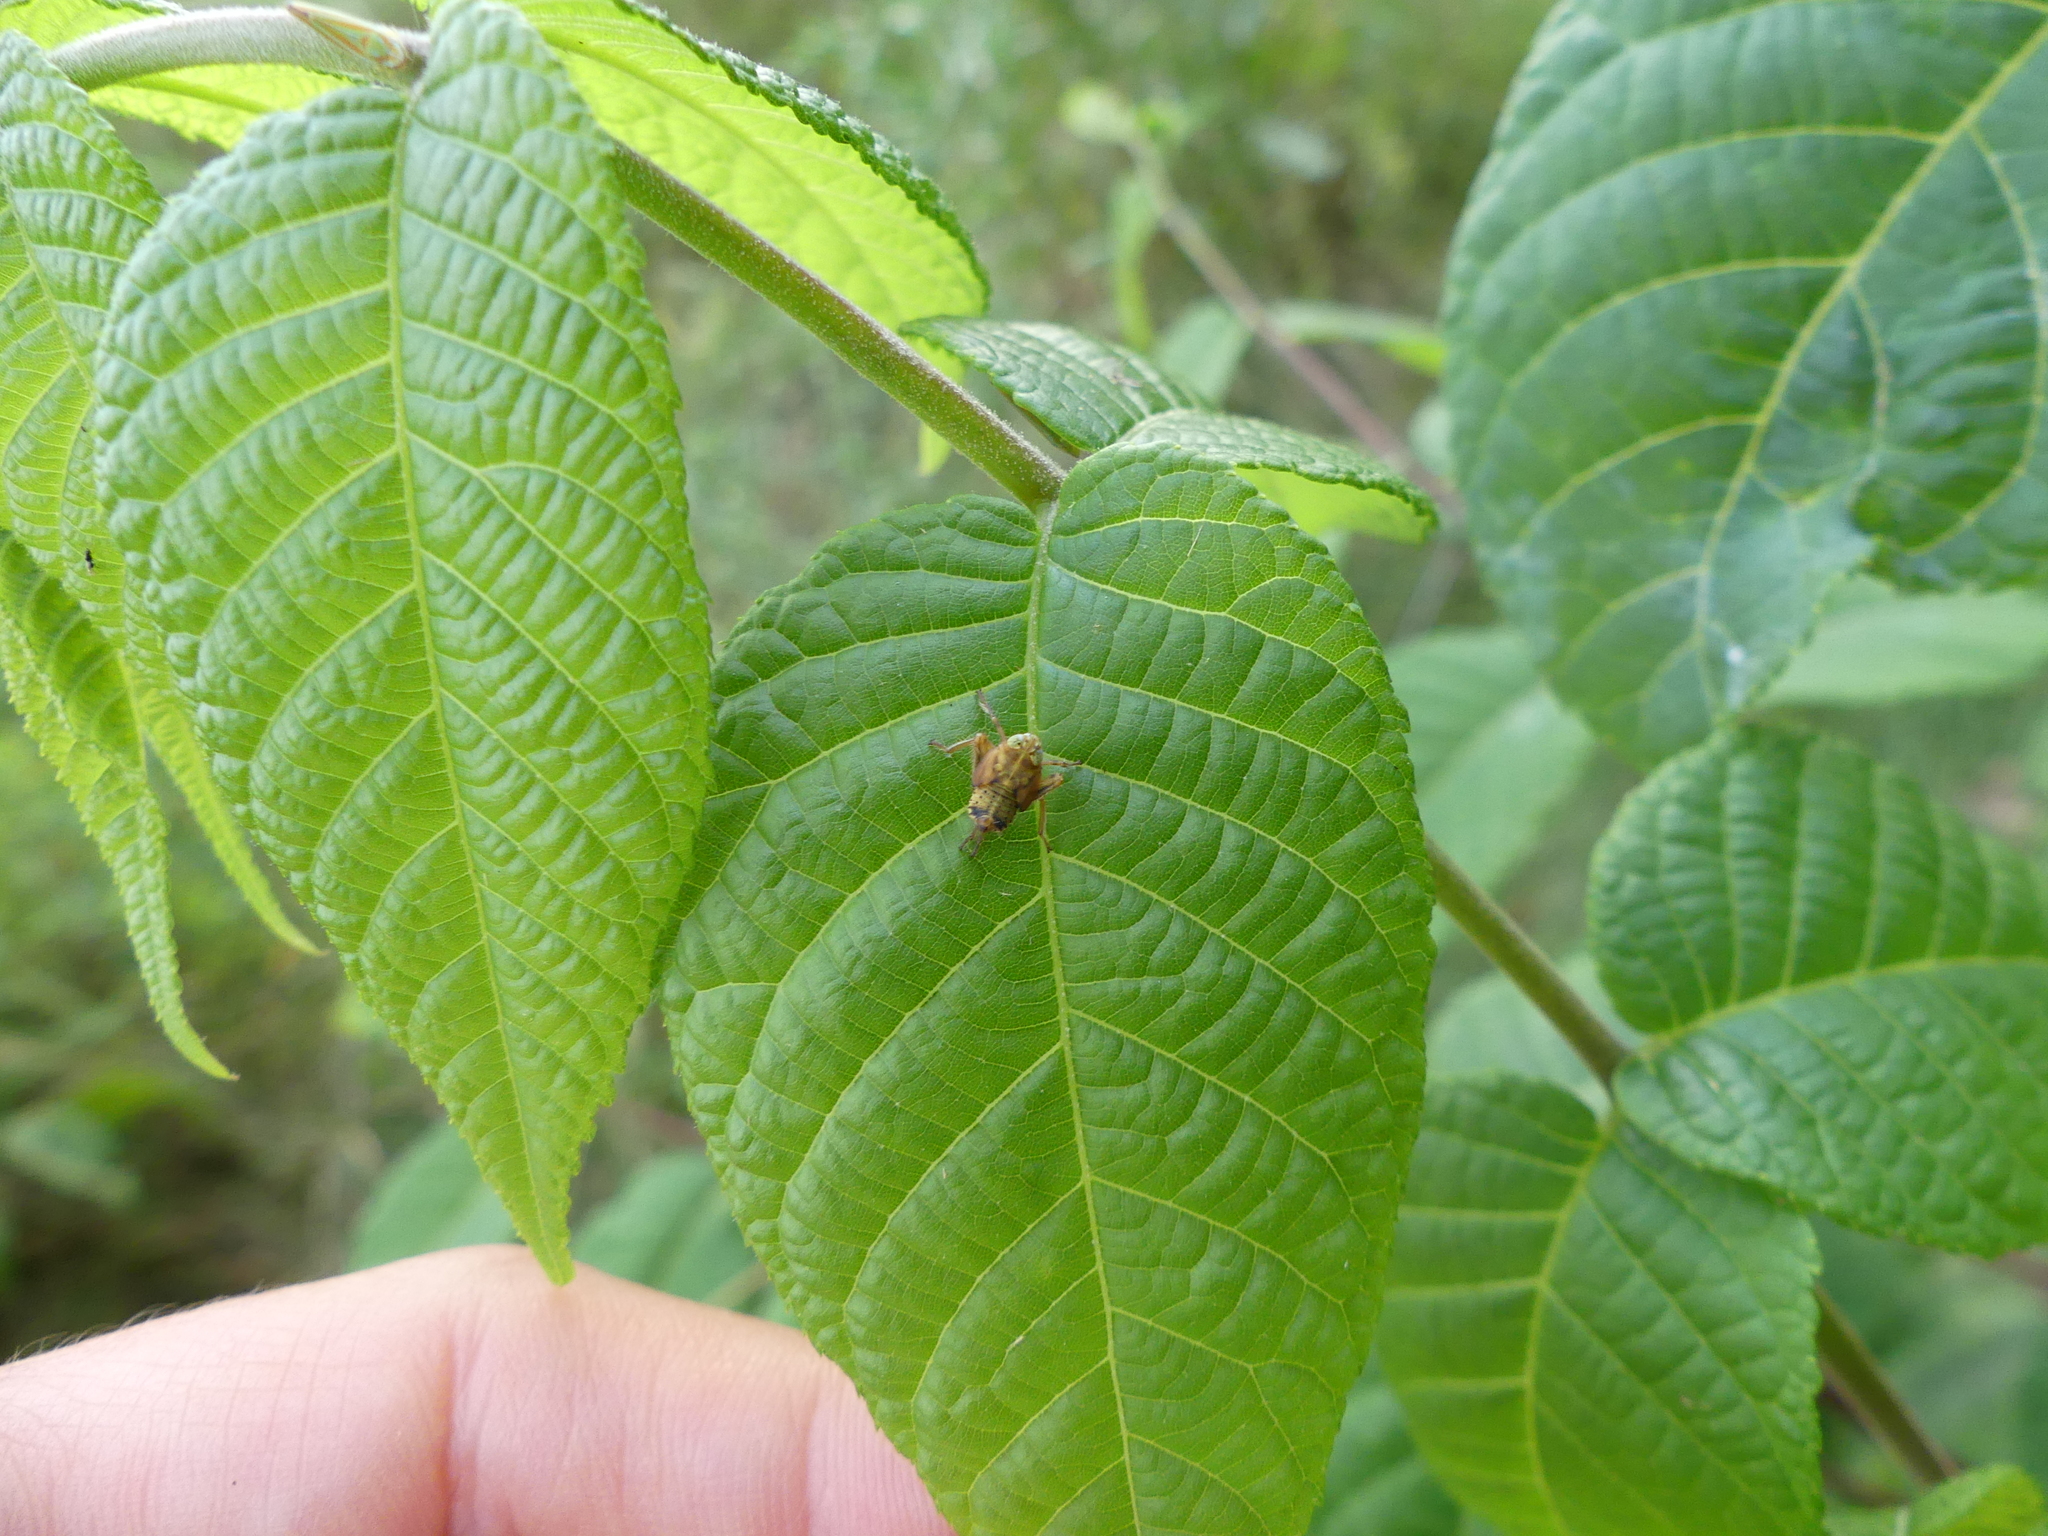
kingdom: Animalia
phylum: Arthropoda
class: Insecta
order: Hemiptera
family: Cicadellidae
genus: Jikradia
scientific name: Jikradia olitoria
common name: Coppery leafhopper
